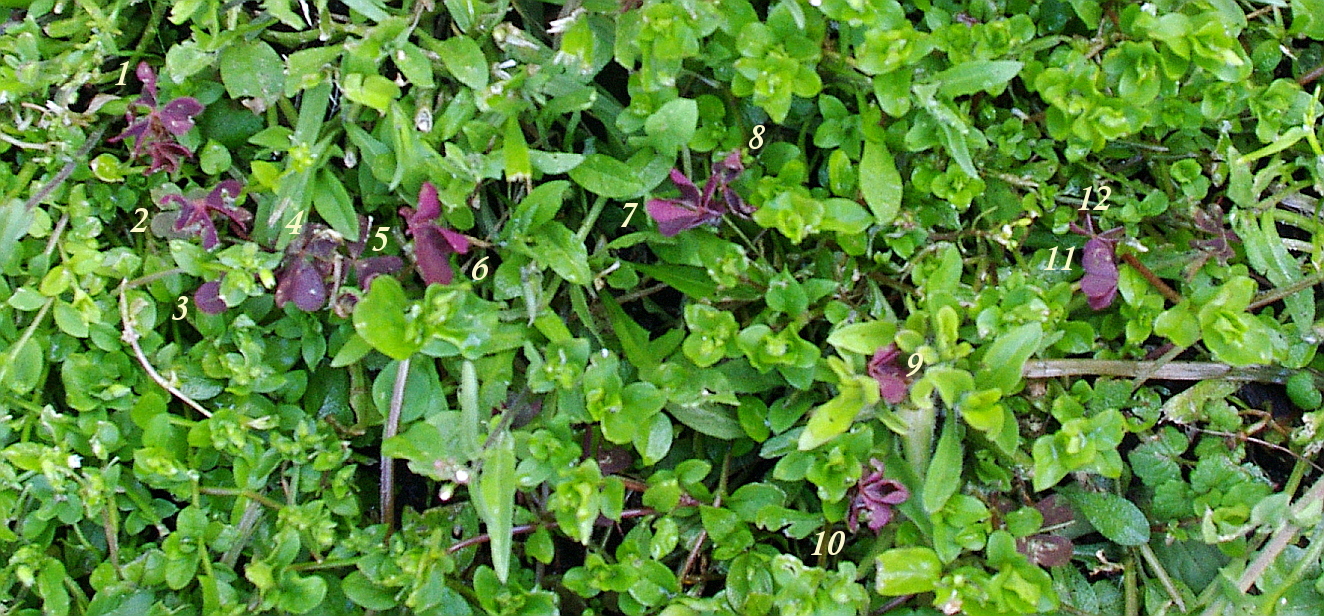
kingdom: Plantae
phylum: Tracheophyta
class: Magnoliopsida
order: Oxalidales
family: Oxalidaceae
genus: Oxalis
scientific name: Oxalis stricta
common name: Upright yellow-sorrel
